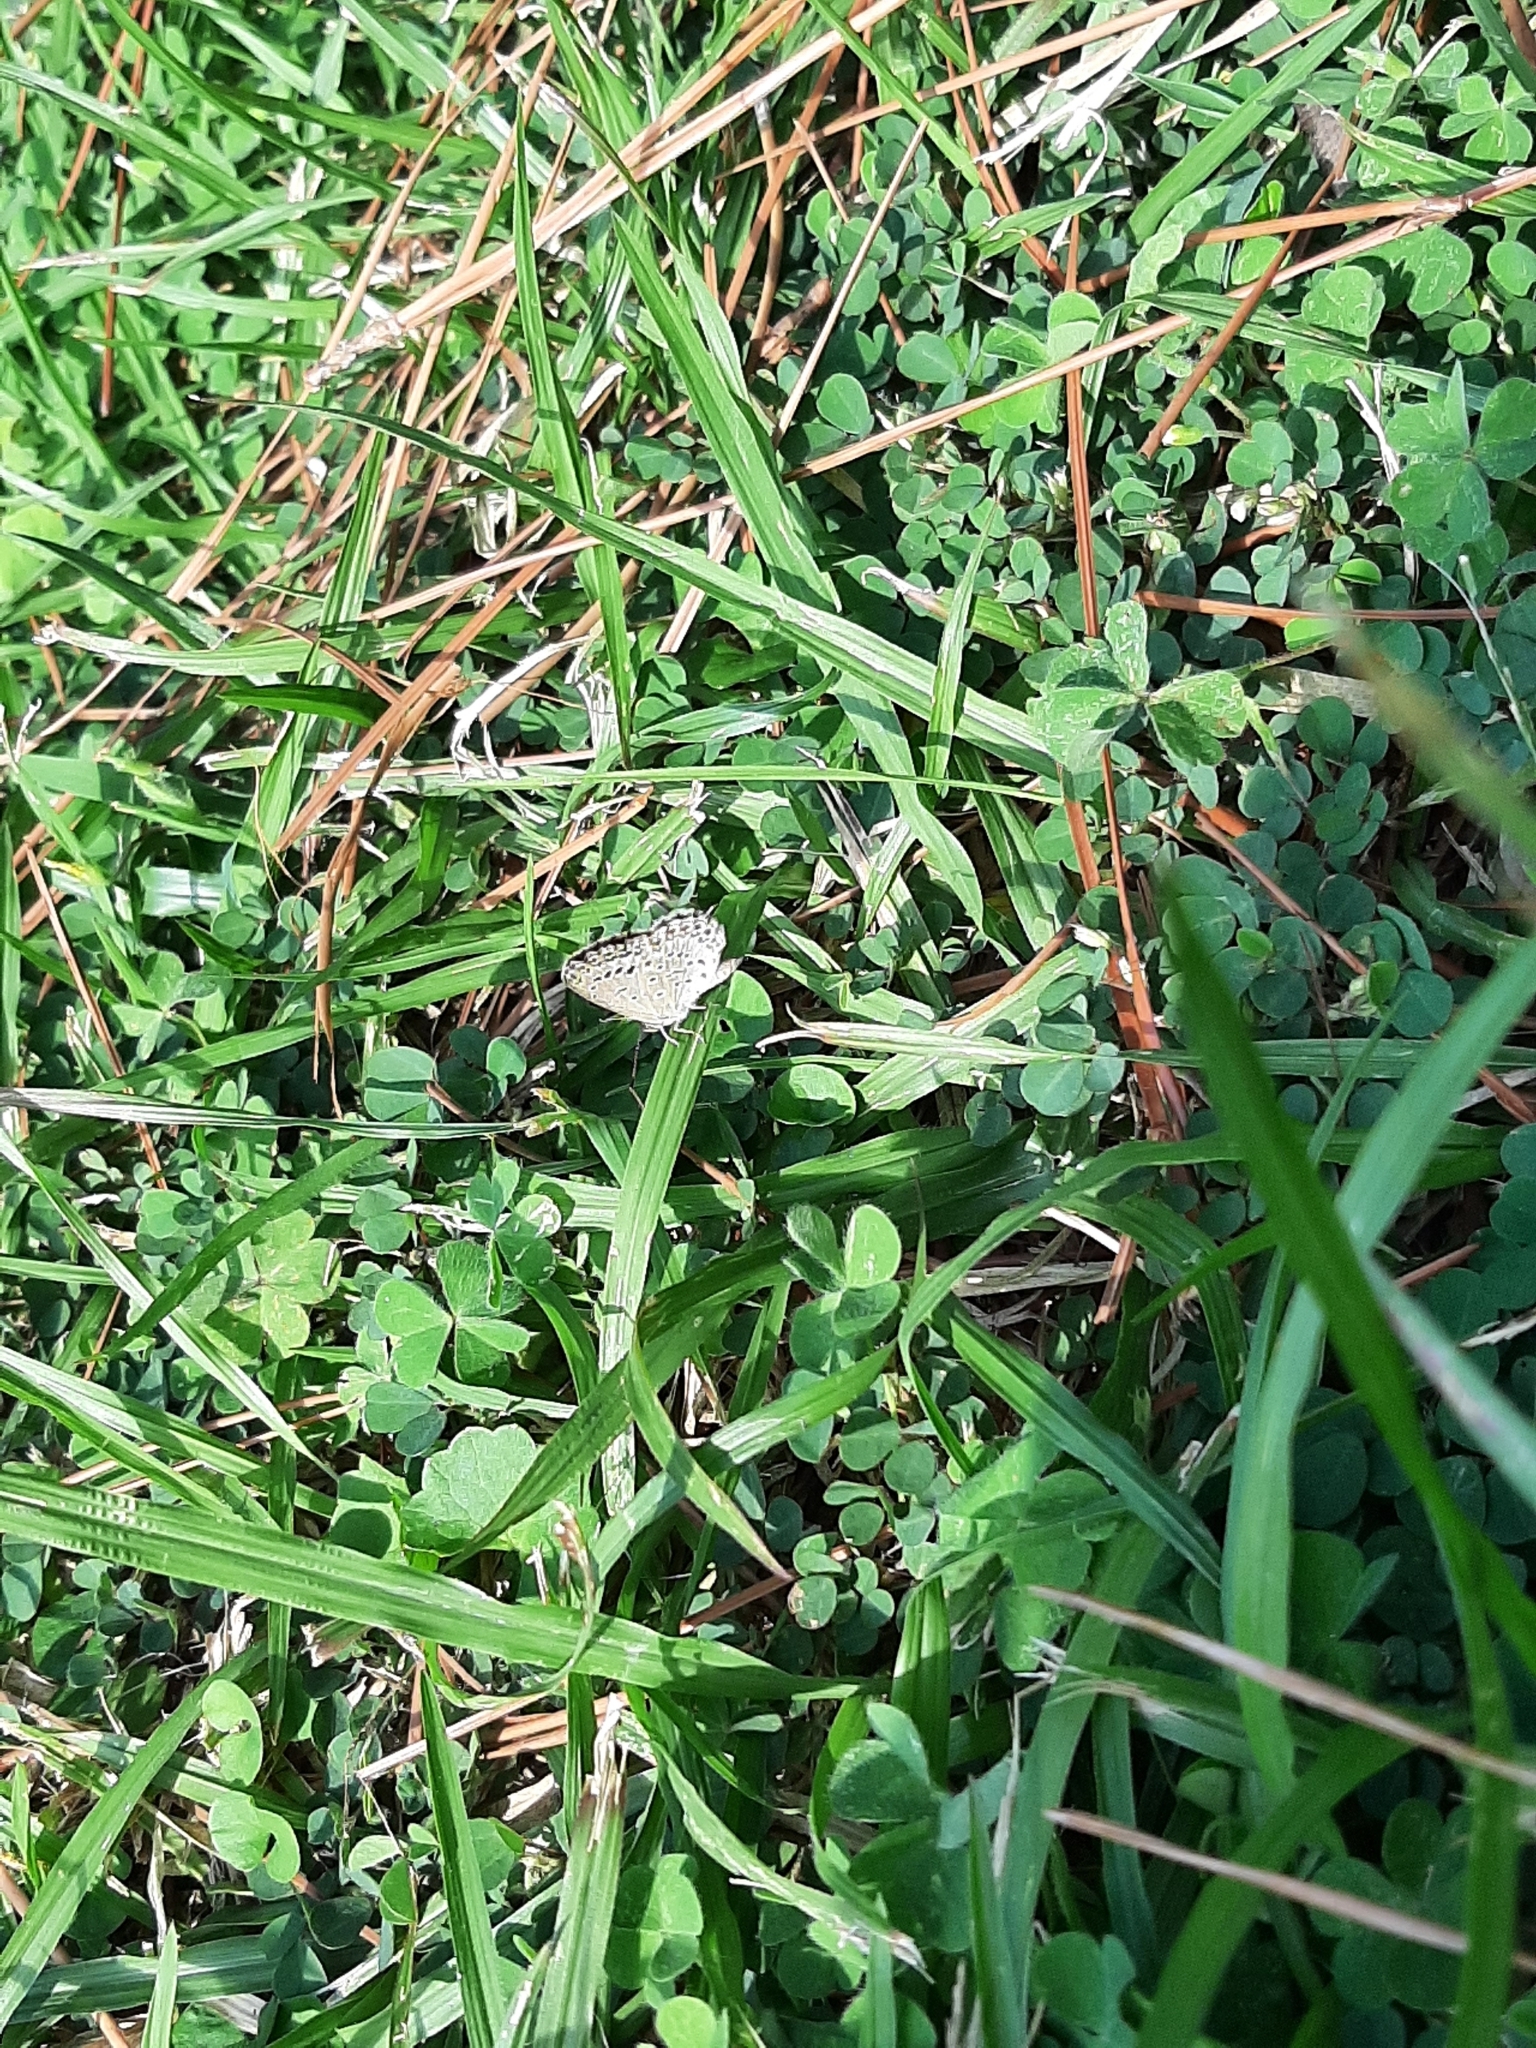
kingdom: Animalia
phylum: Arthropoda
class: Insecta
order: Lepidoptera
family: Lycaenidae
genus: Pseudozizeeria
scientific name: Pseudozizeeria maha
